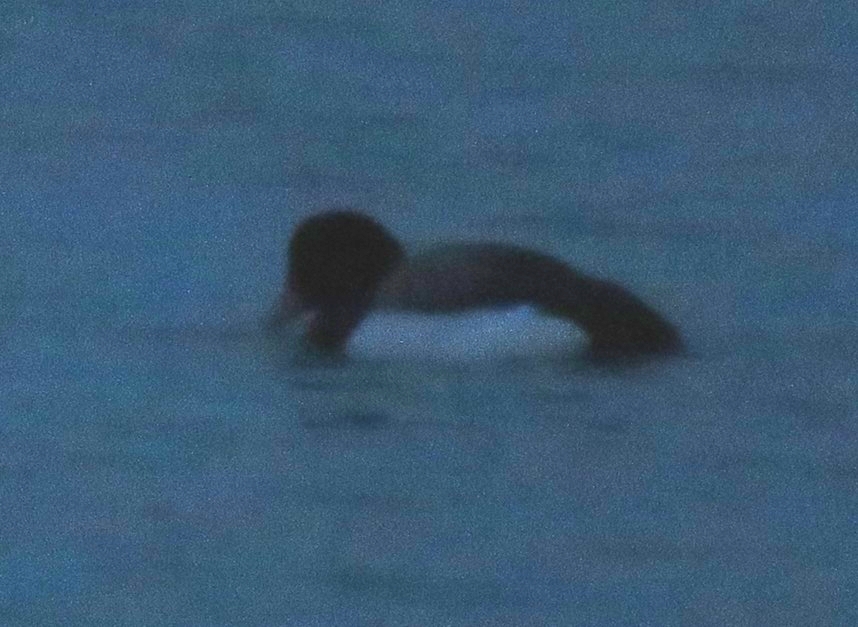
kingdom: Animalia
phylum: Chordata
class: Aves
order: Anseriformes
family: Anatidae
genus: Aythya
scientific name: Aythya marila
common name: Greater scaup
